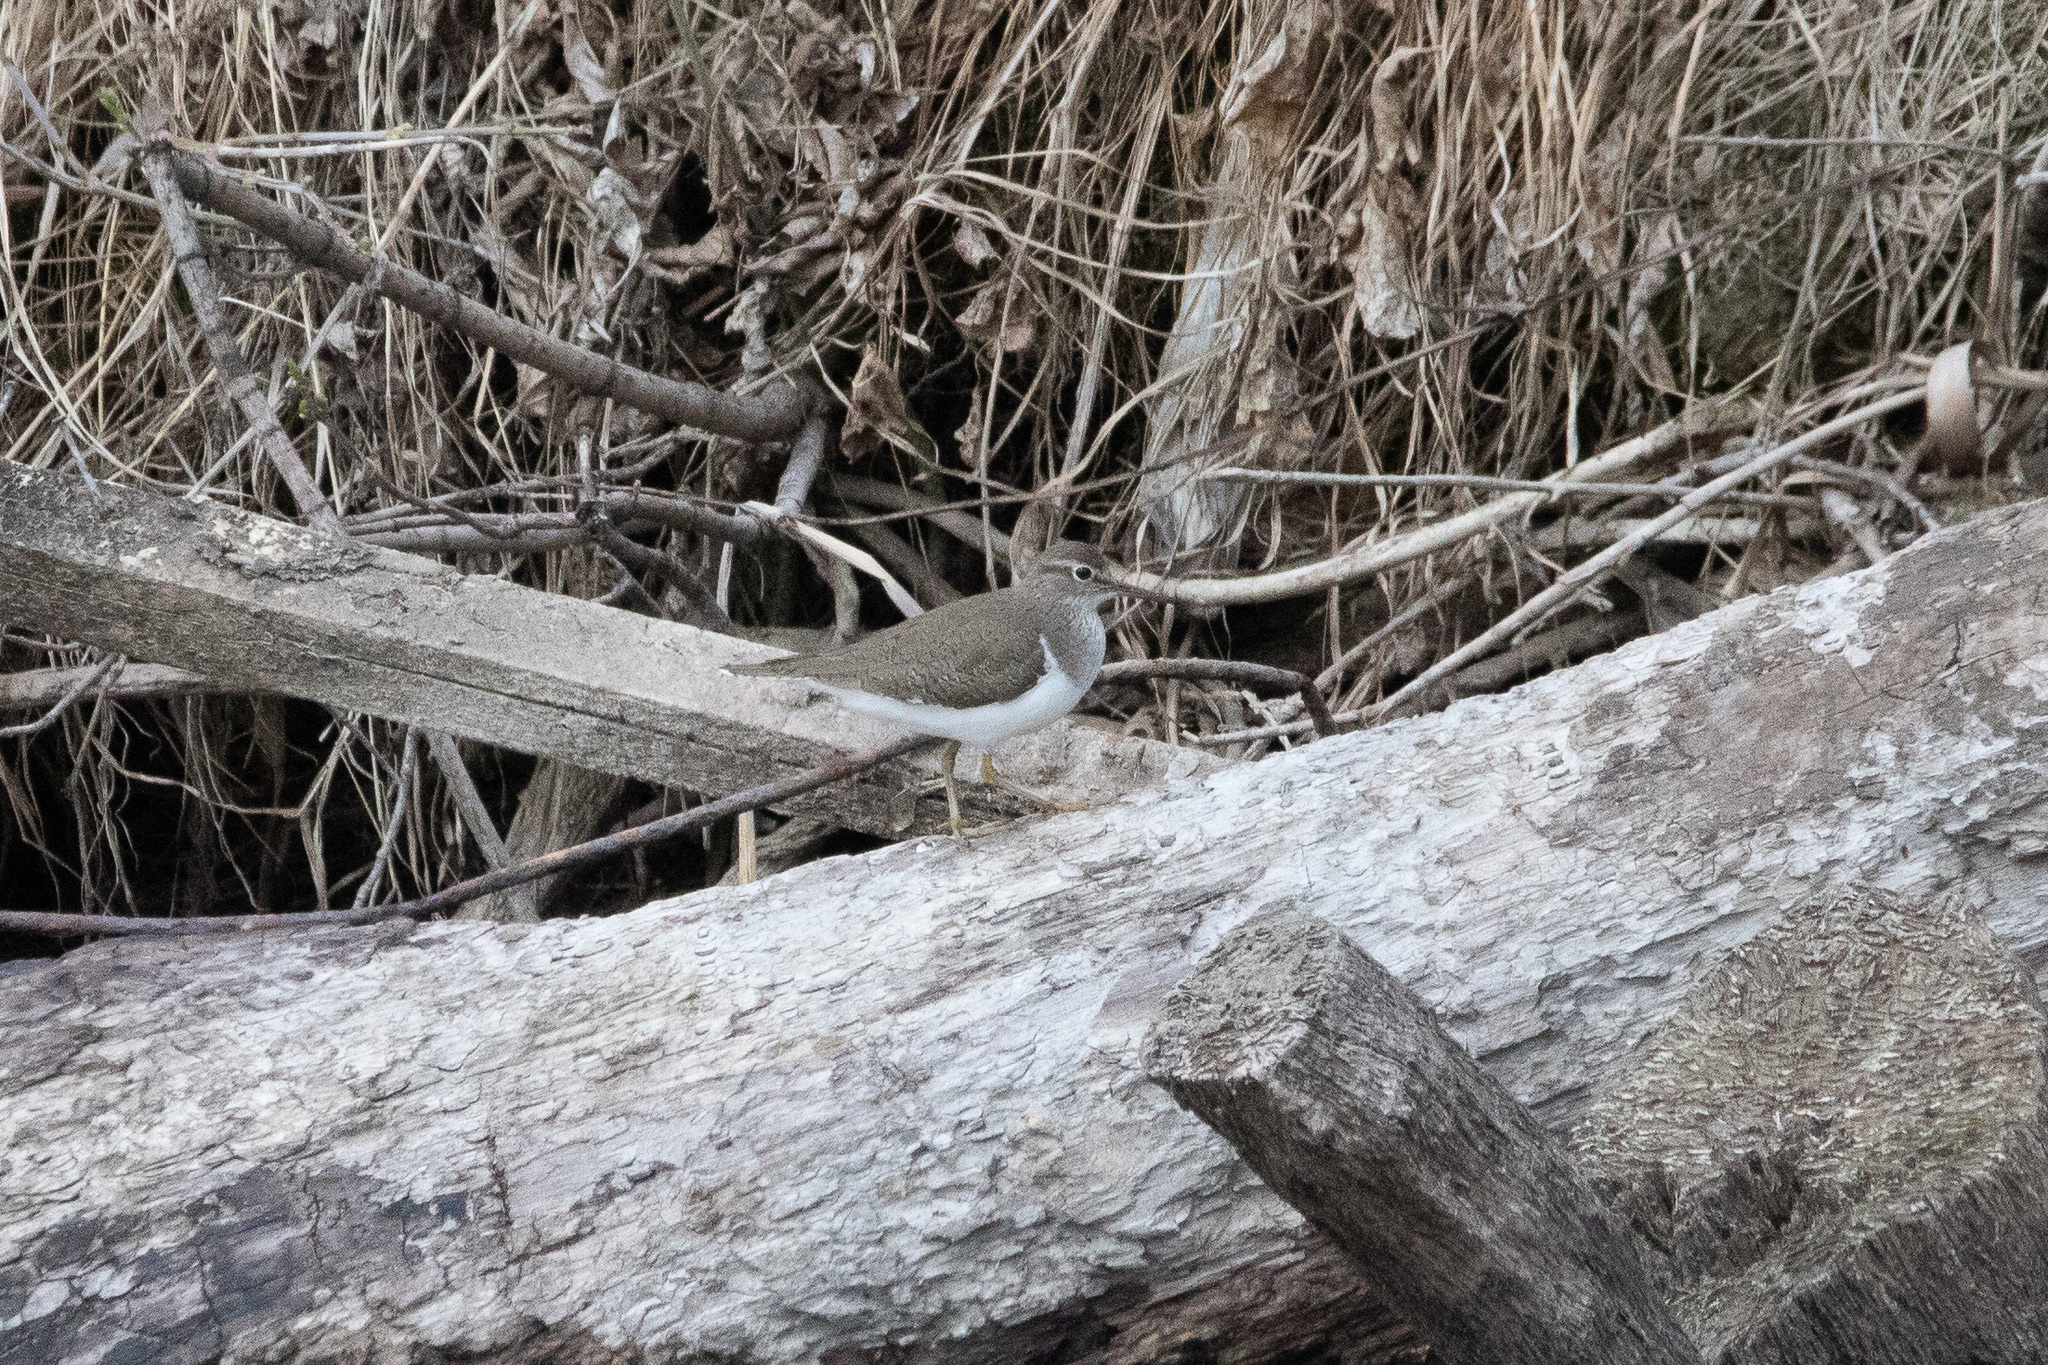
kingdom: Animalia
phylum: Chordata
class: Aves
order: Charadriiformes
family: Scolopacidae
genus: Actitis
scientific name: Actitis hypoleucos
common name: Common sandpiper
